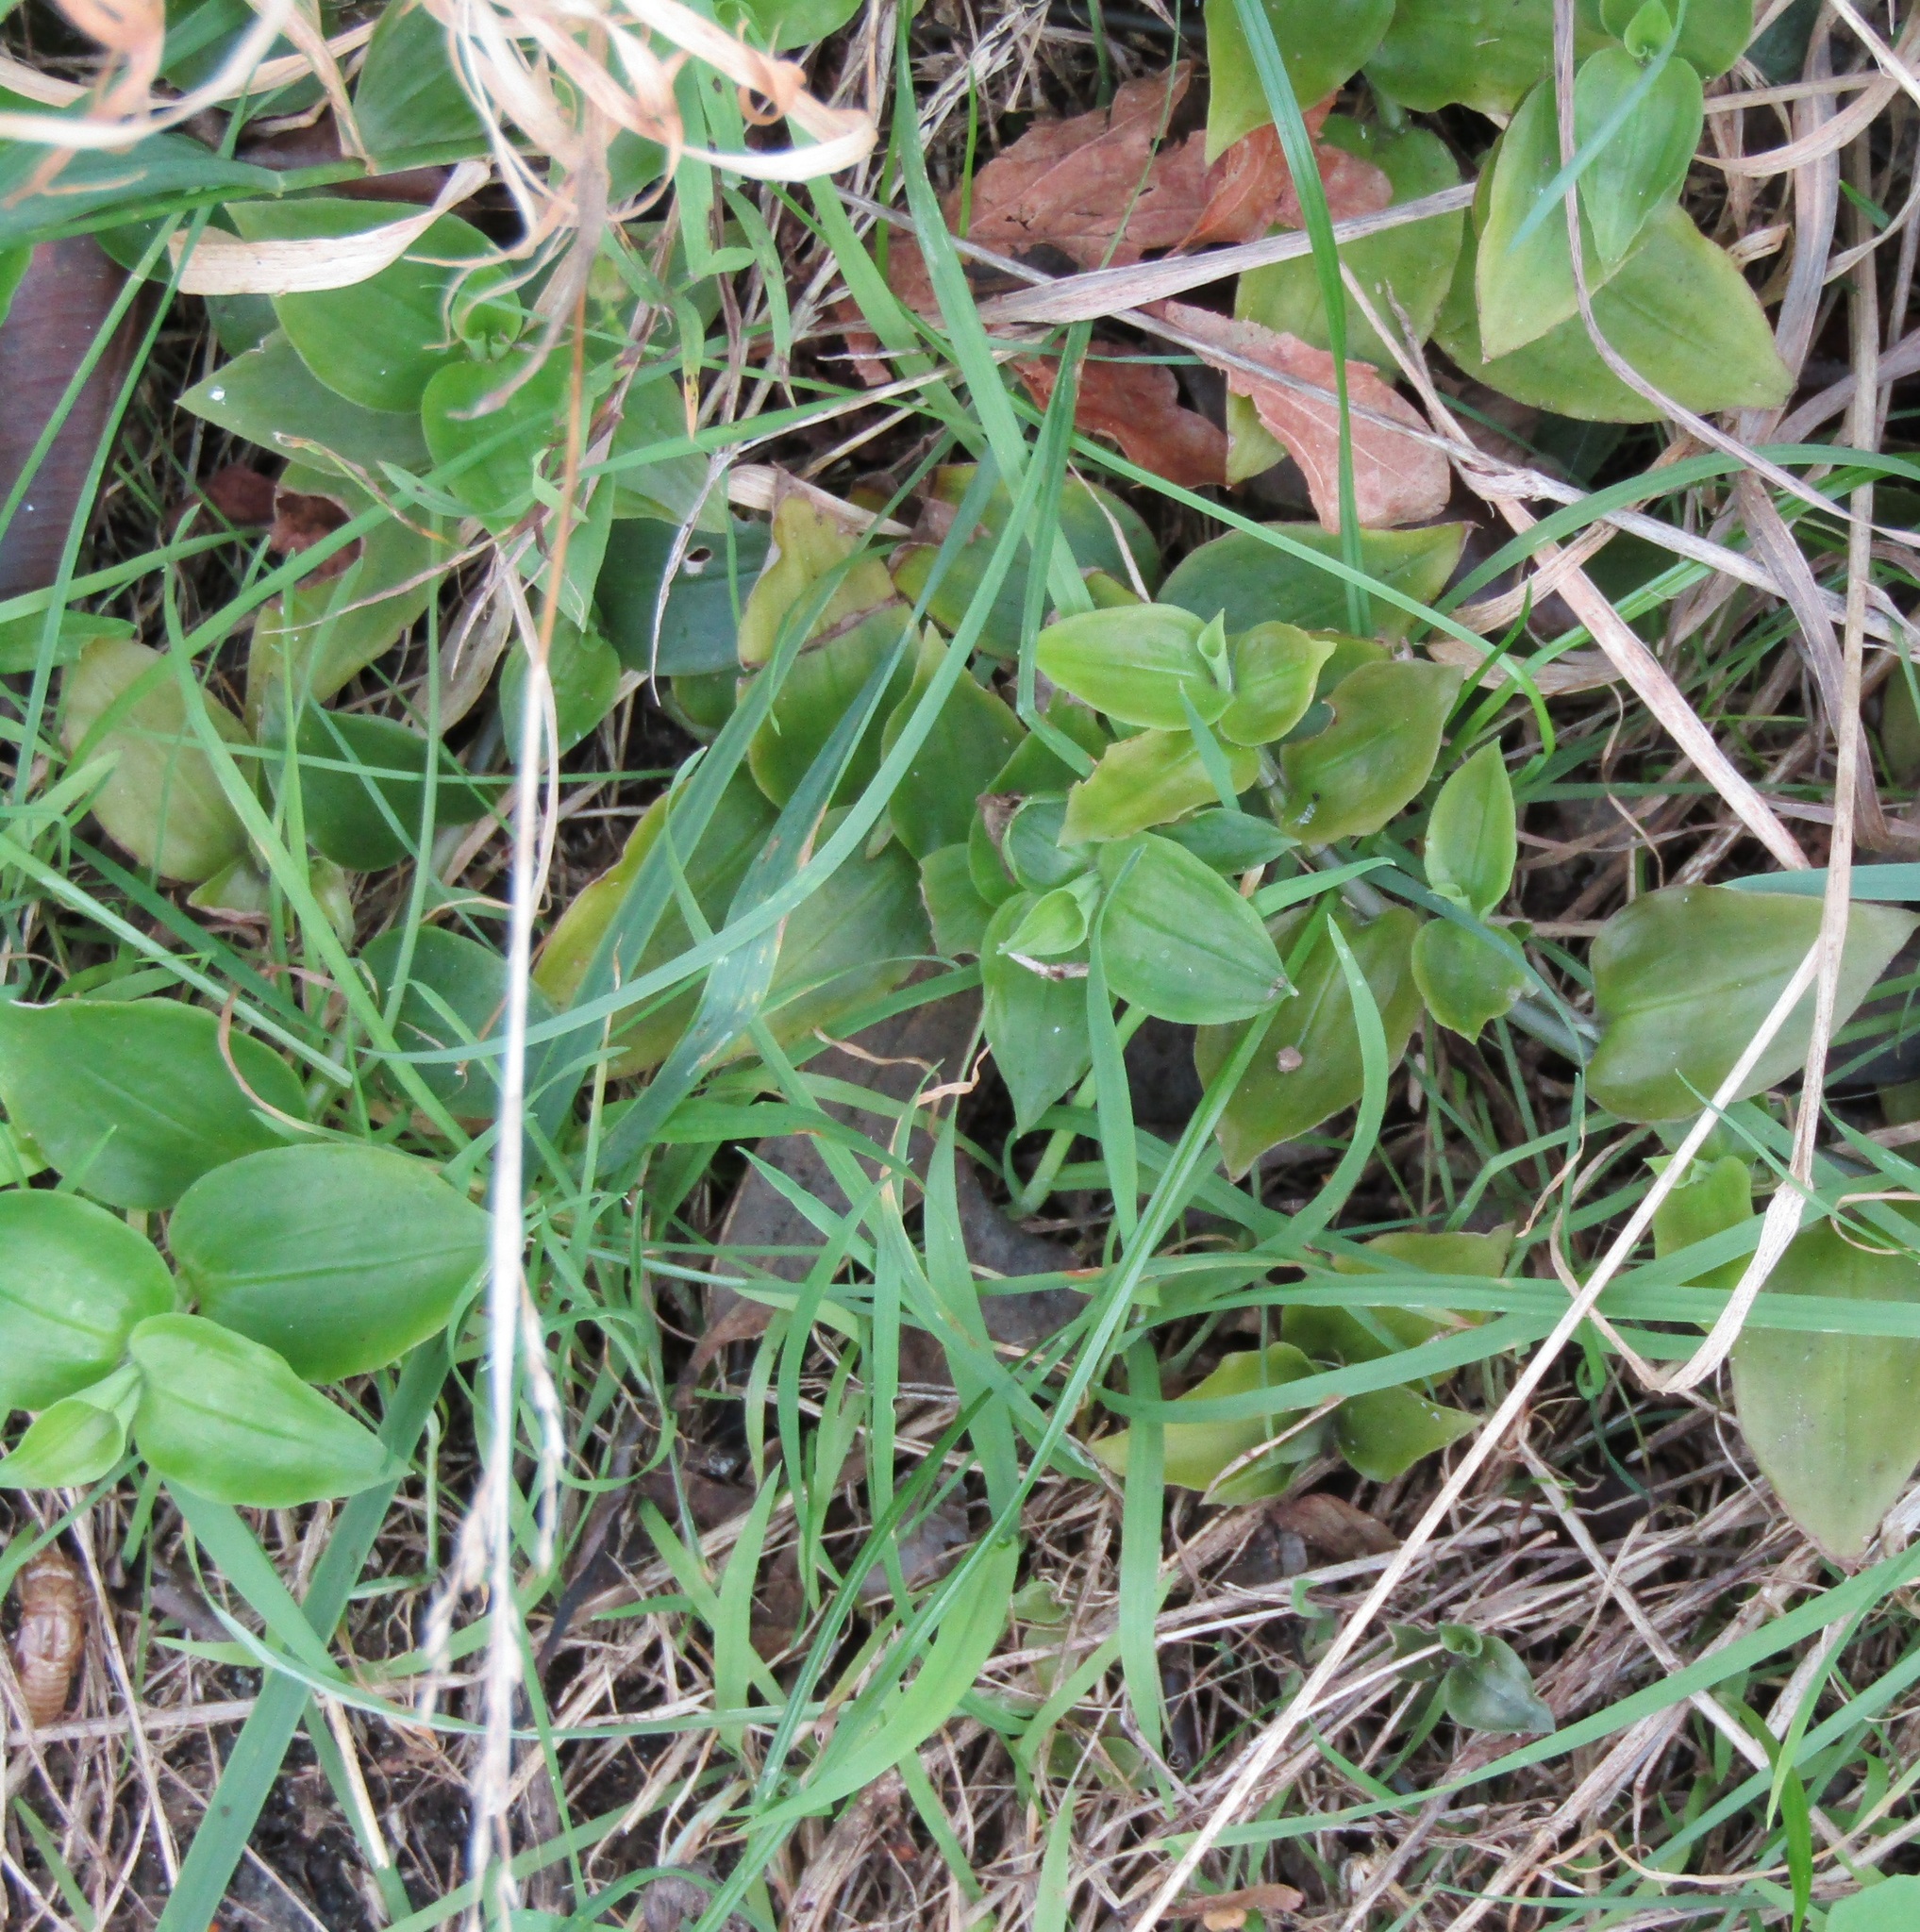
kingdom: Plantae
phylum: Tracheophyta
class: Liliopsida
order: Commelinales
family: Commelinaceae
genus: Tradescantia
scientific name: Tradescantia fluminensis
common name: Wandering-jew
